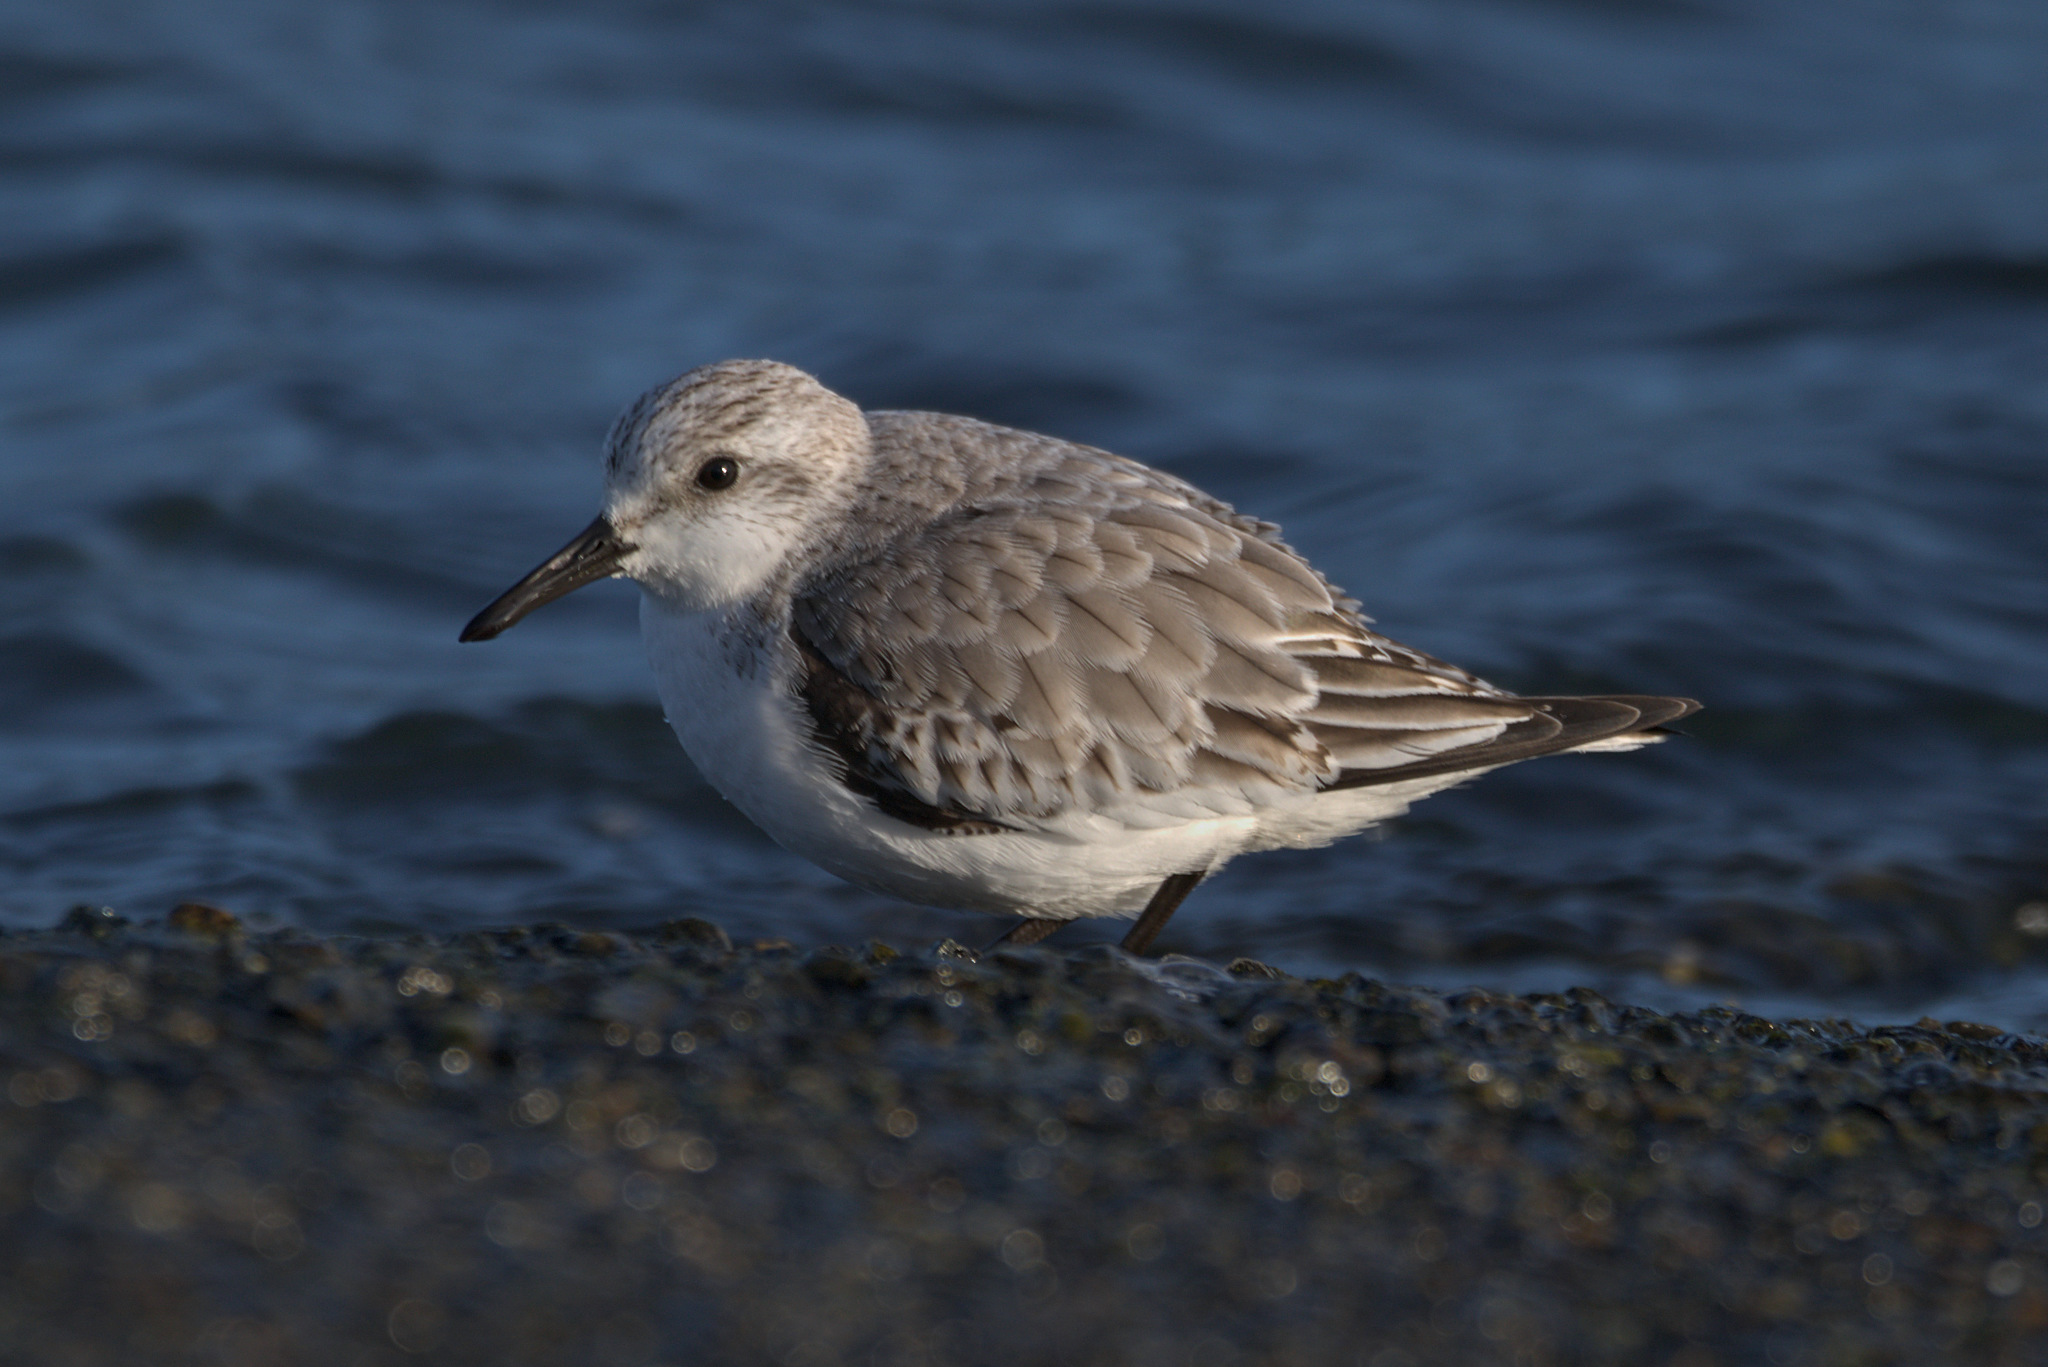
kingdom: Animalia
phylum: Chordata
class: Aves
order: Charadriiformes
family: Scolopacidae
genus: Calidris
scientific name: Calidris alba
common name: Sanderling
